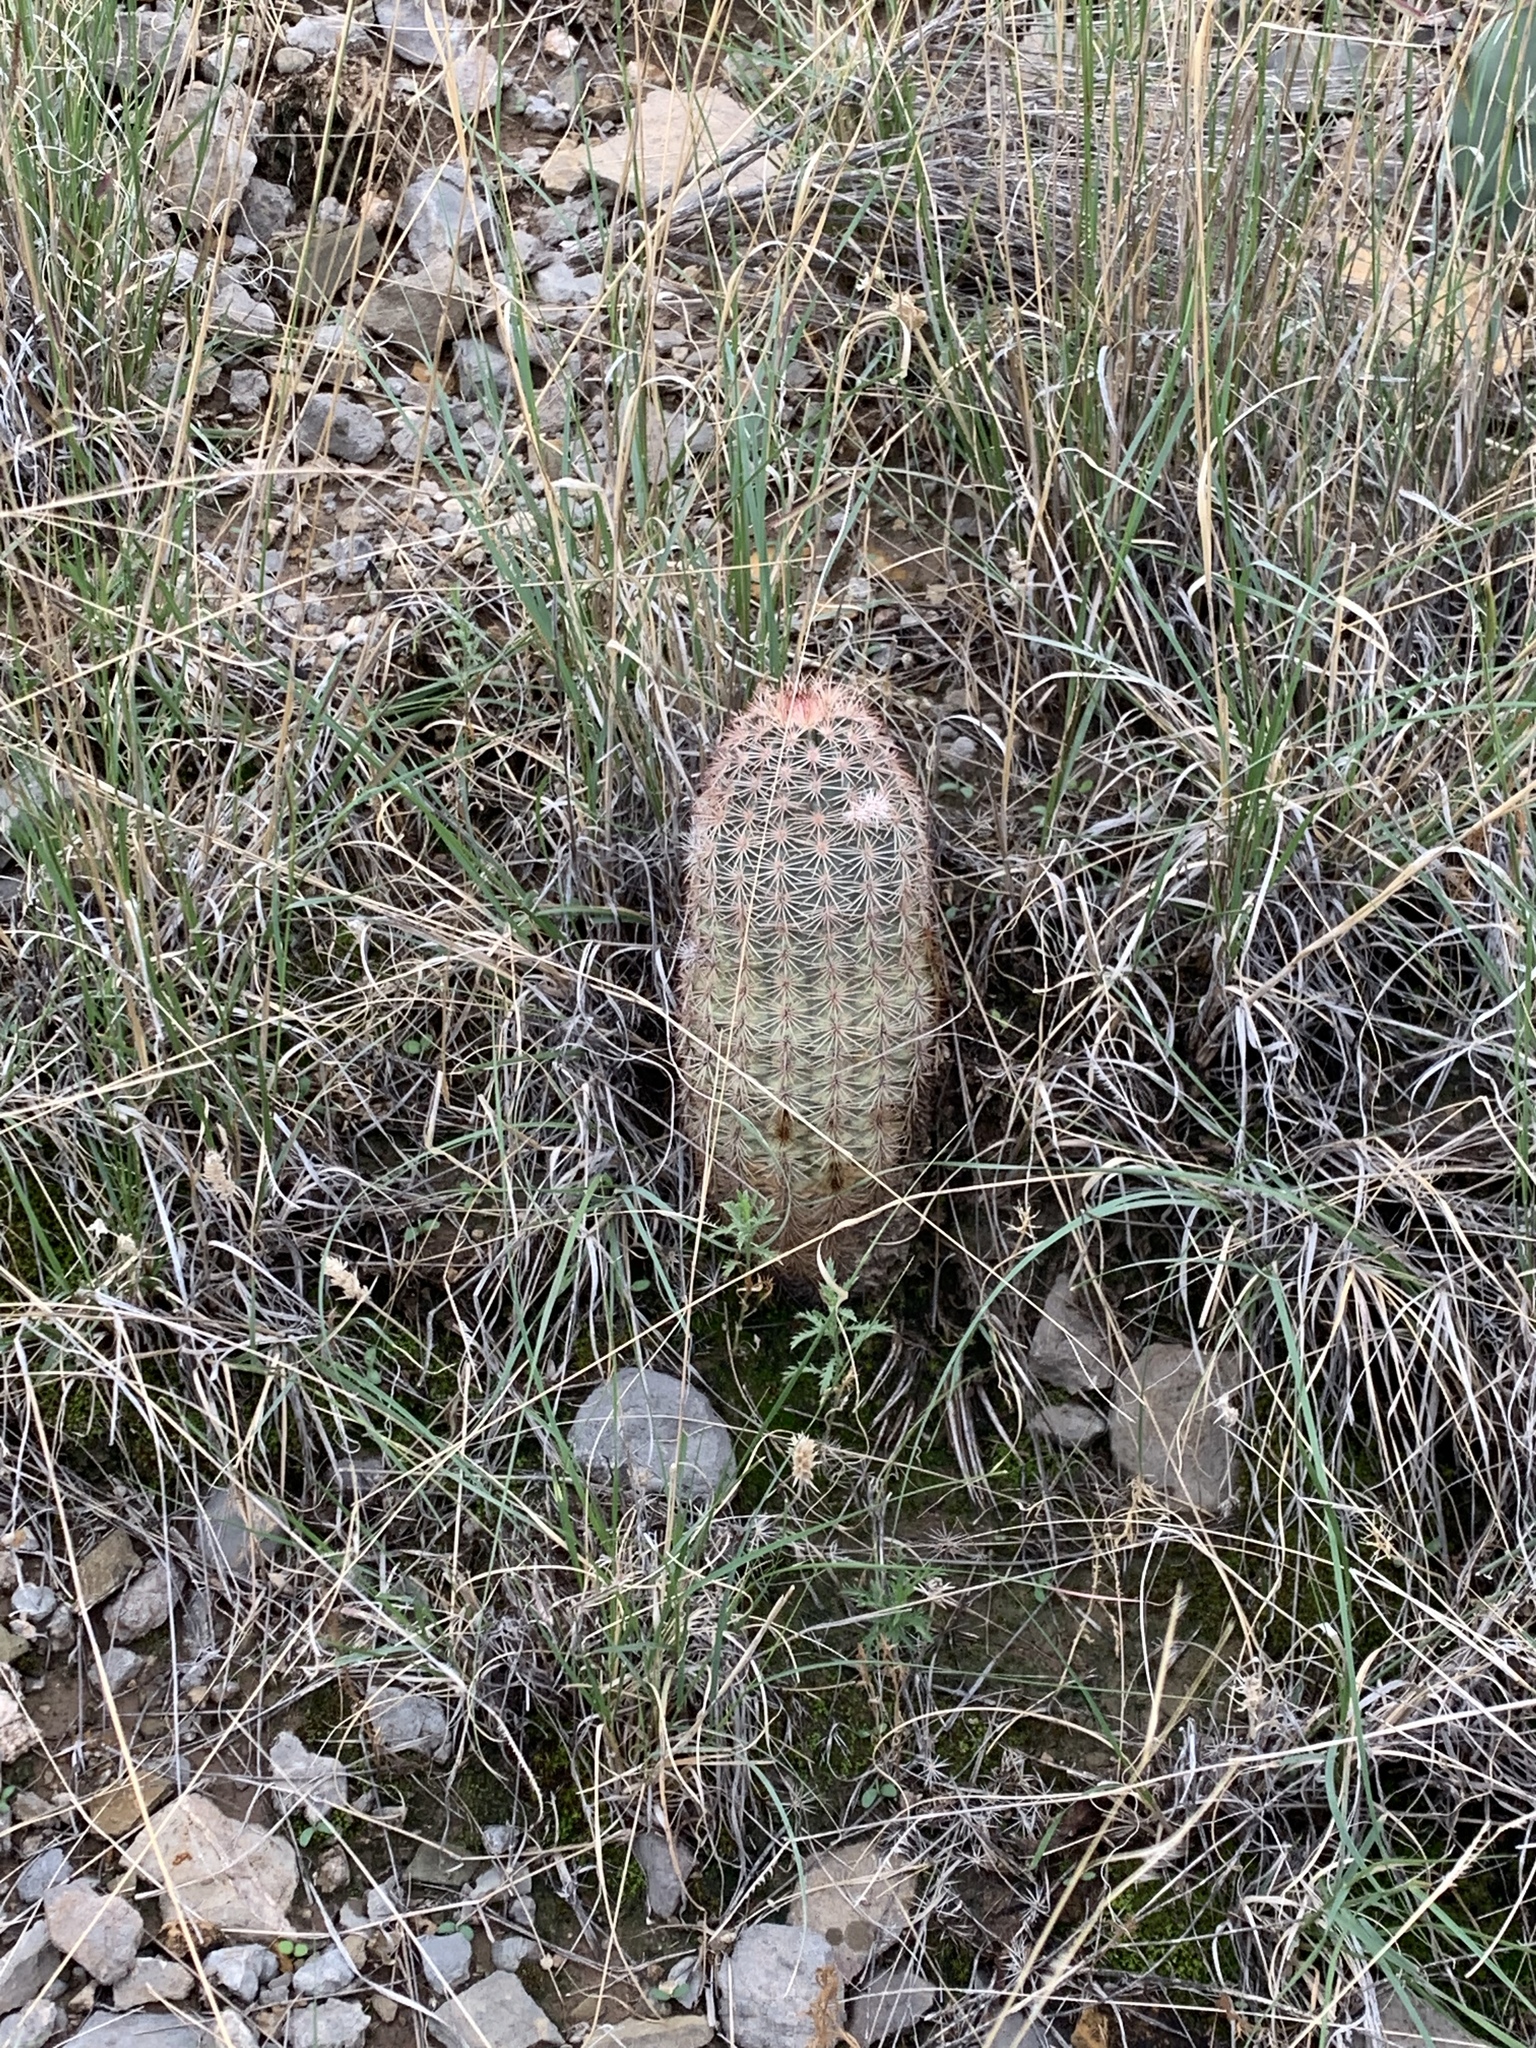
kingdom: Plantae
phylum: Tracheophyta
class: Magnoliopsida
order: Caryophyllales
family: Cactaceae
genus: Echinocereus
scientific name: Echinocereus dasyacanthus
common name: Spiny hedgehog cactus
